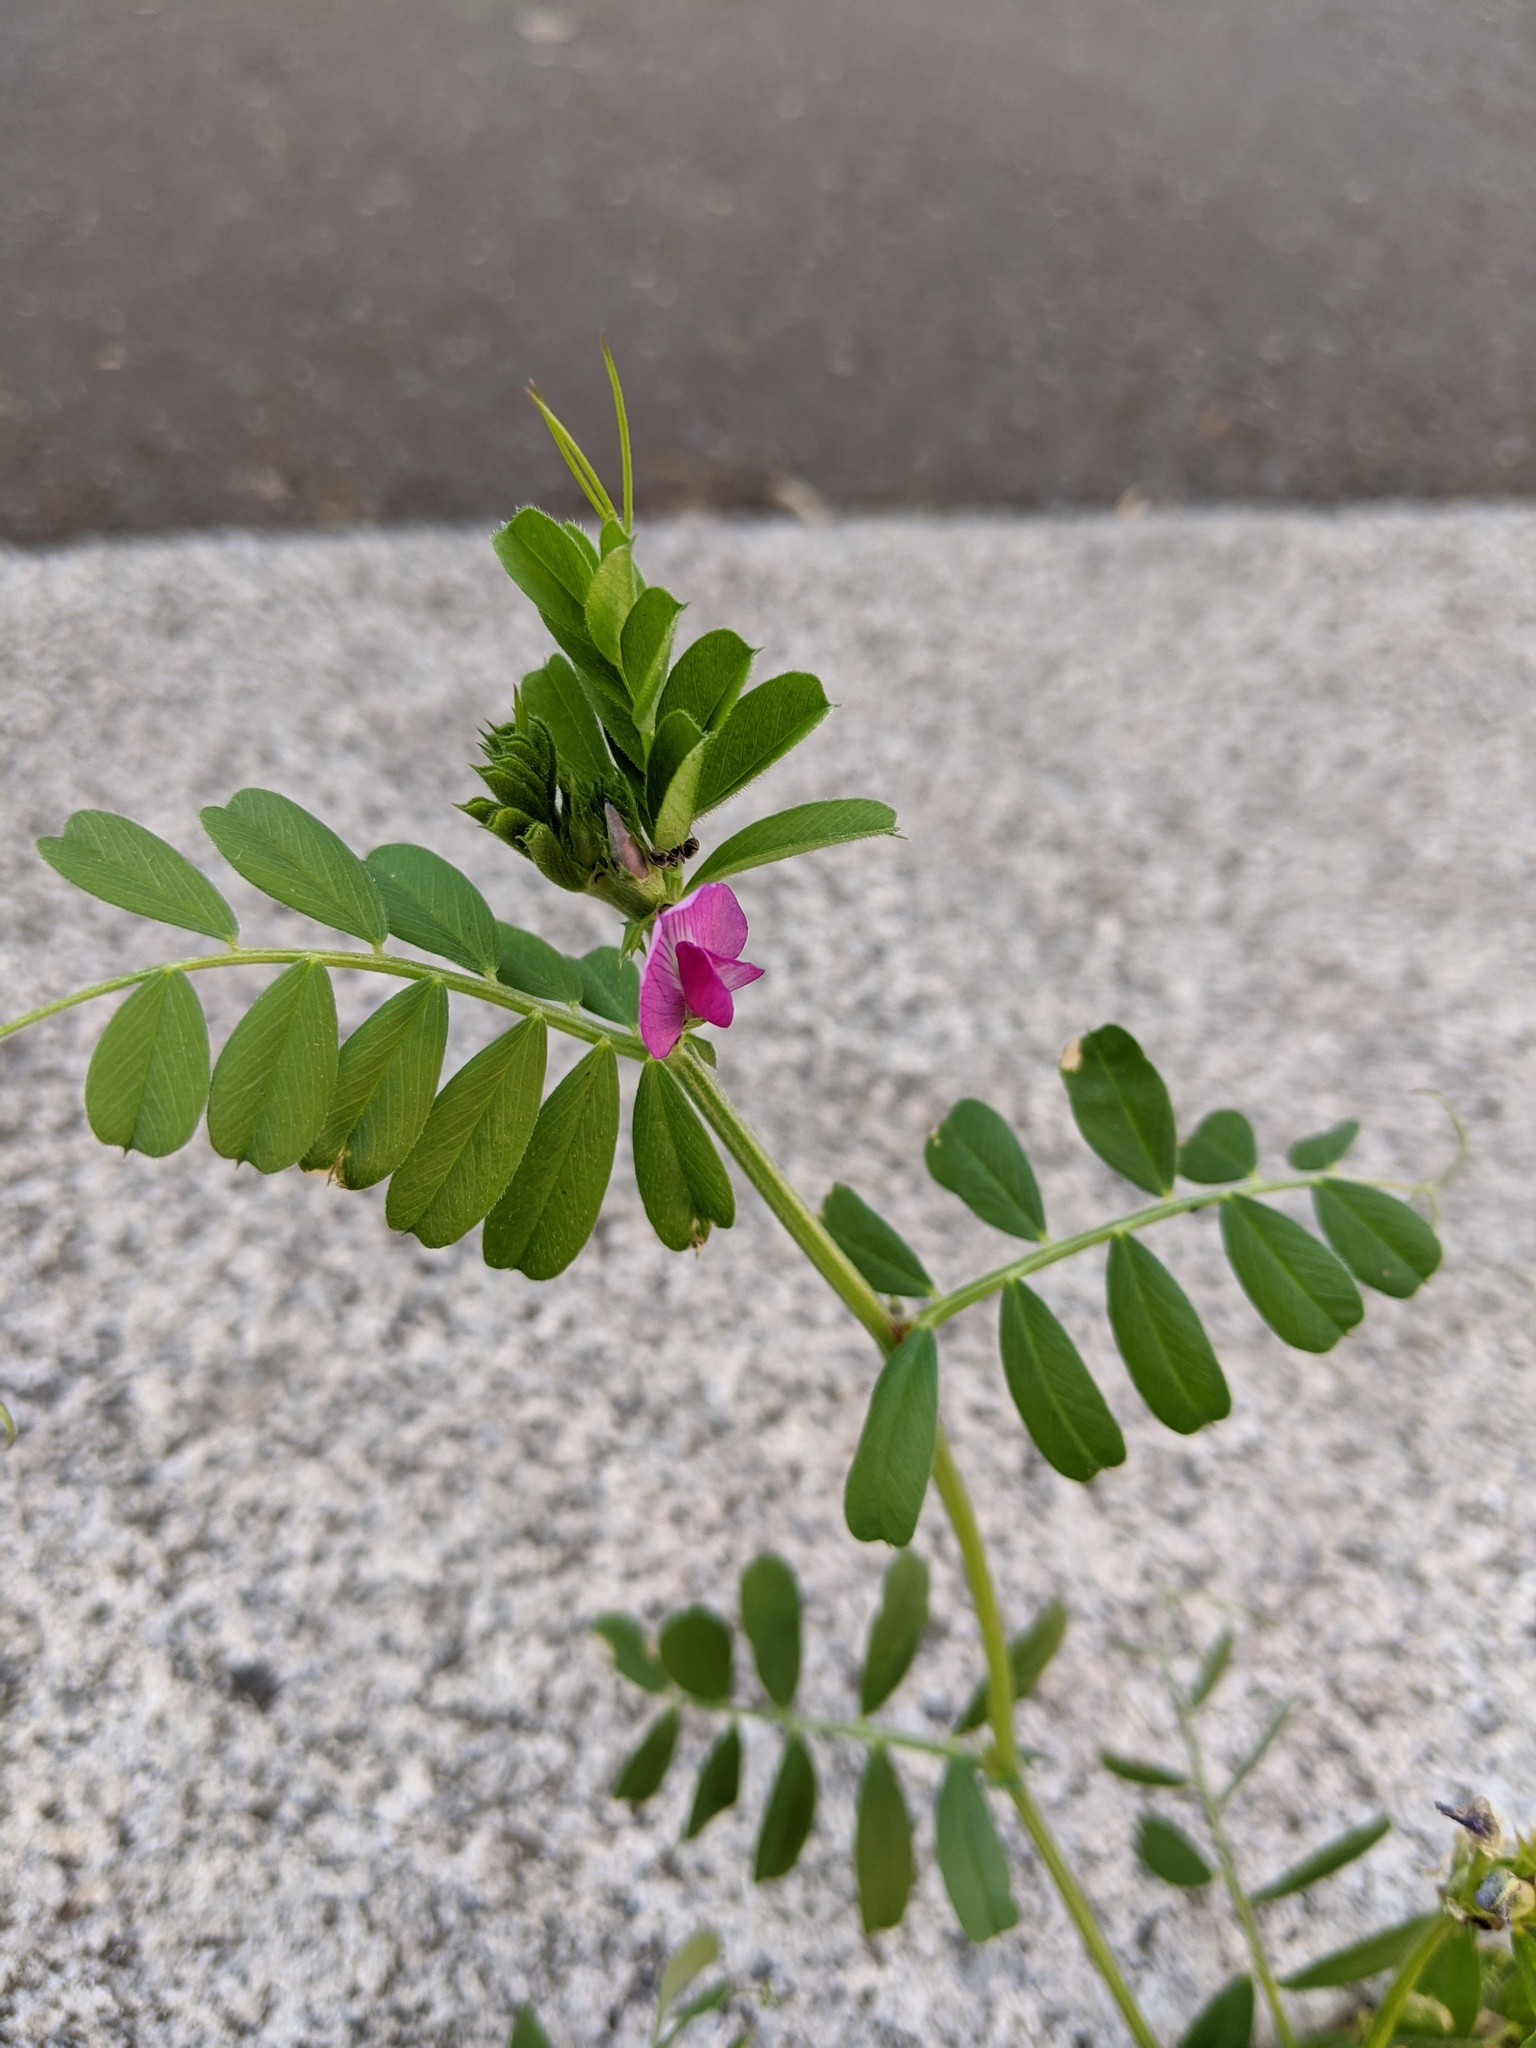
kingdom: Plantae
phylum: Tracheophyta
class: Magnoliopsida
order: Fabales
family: Fabaceae
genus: Vicia
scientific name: Vicia sativa
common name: Garden vetch
